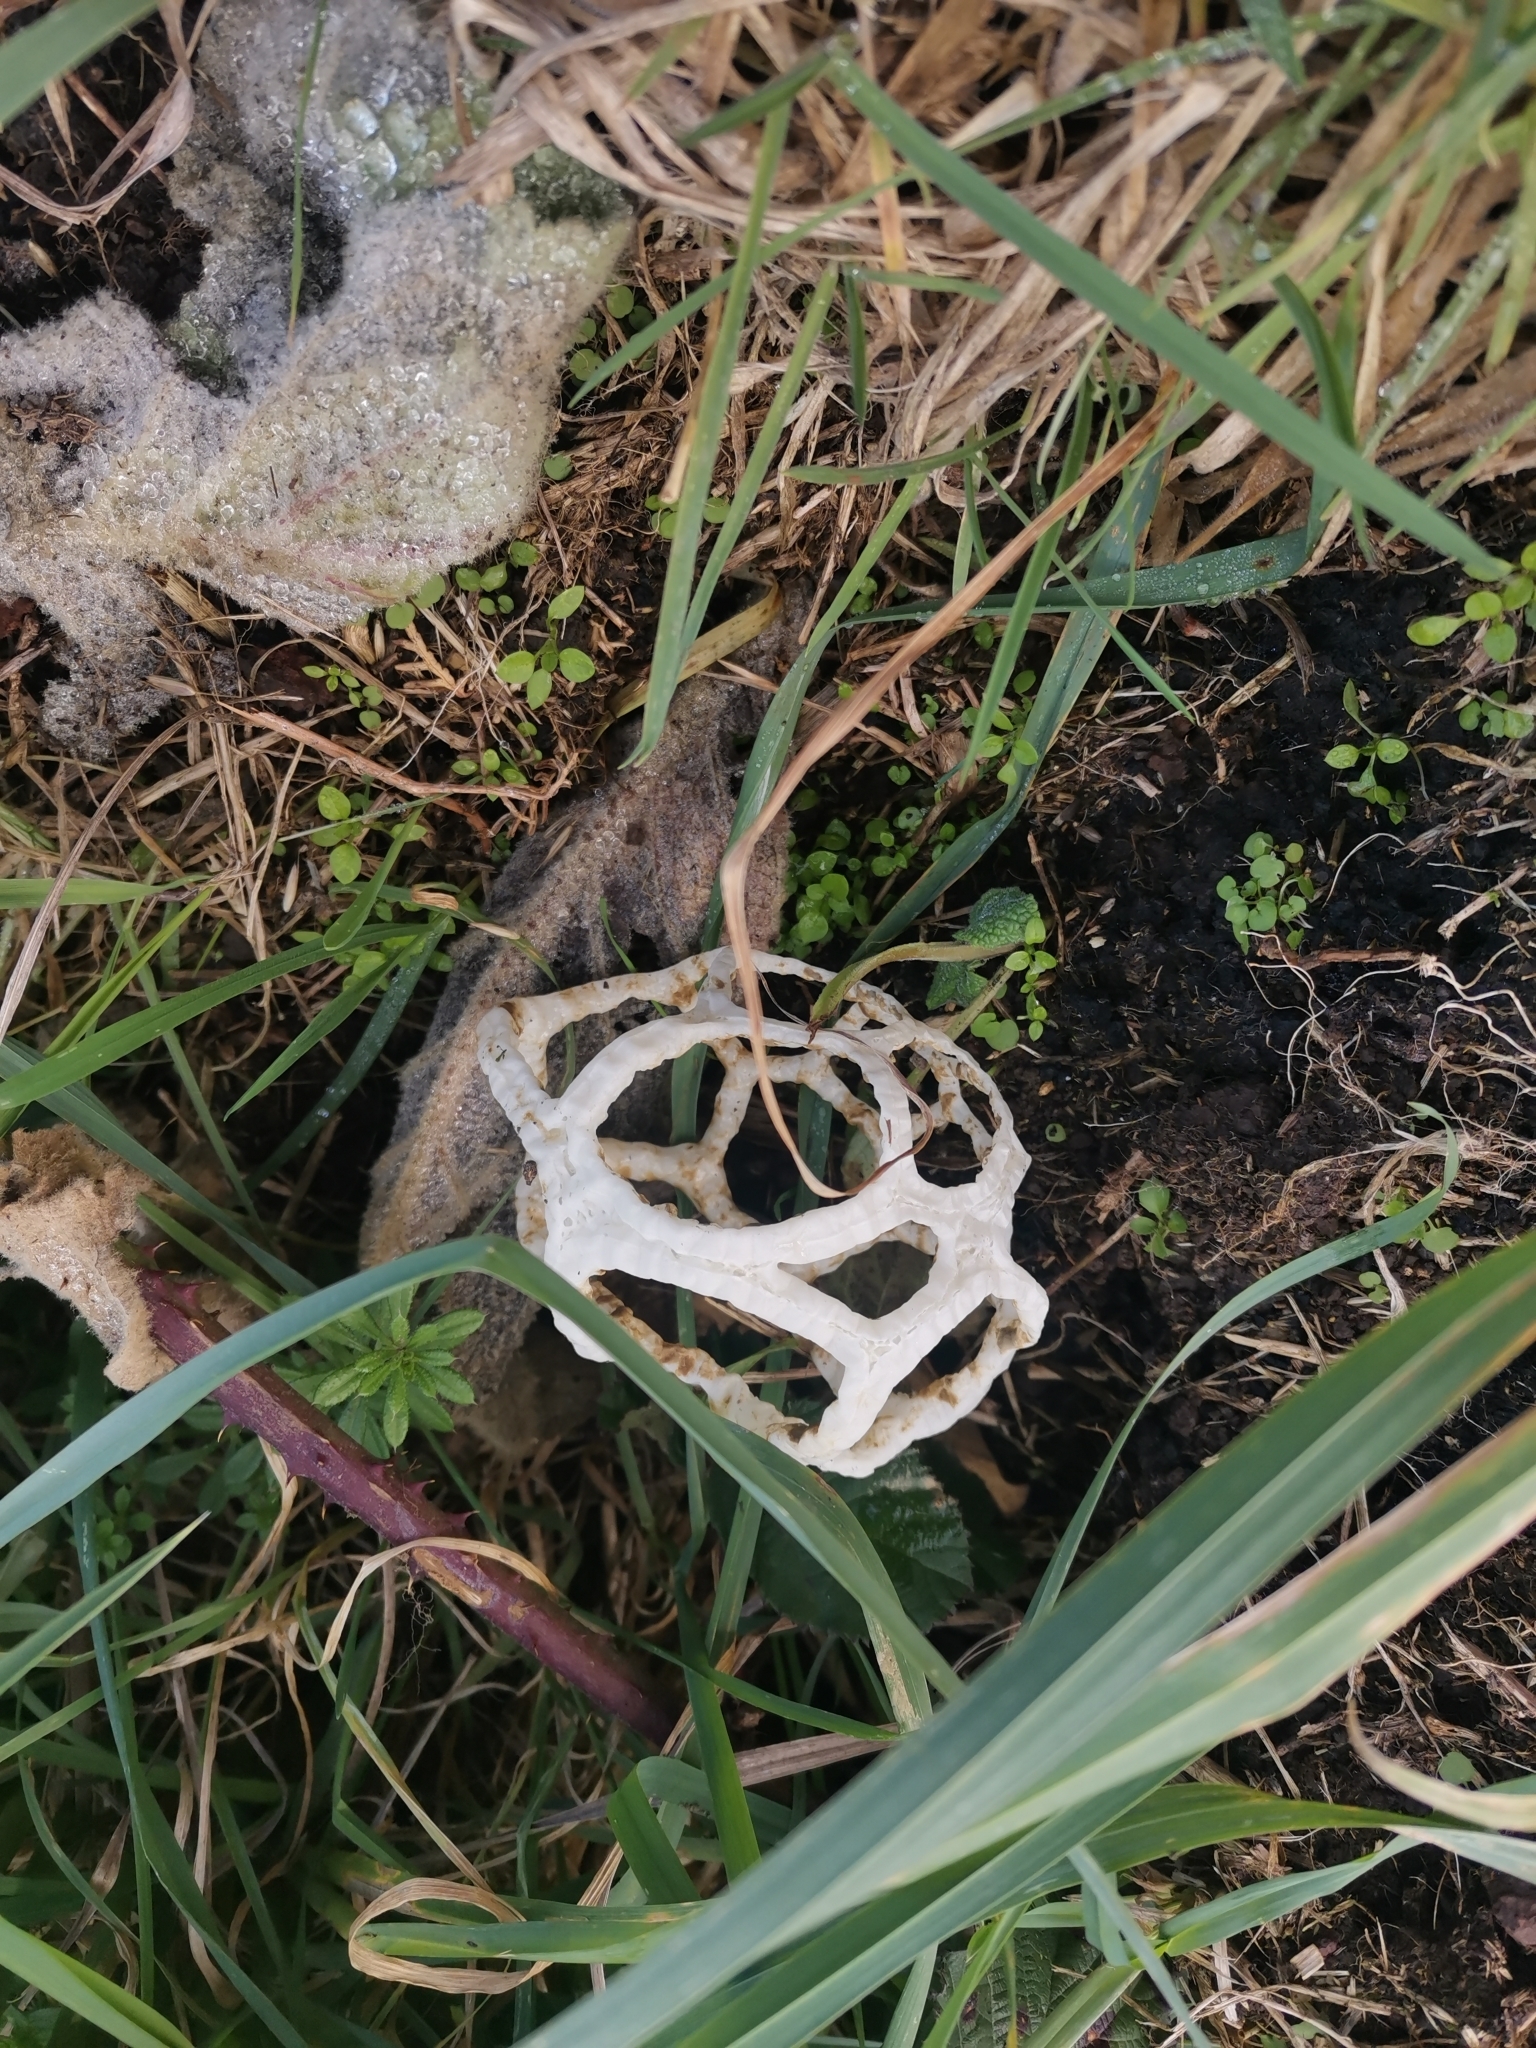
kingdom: Fungi
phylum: Basidiomycota
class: Agaricomycetes
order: Phallales
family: Phallaceae
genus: Ileodictyon
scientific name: Ileodictyon cibarium
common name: Basket fungus
